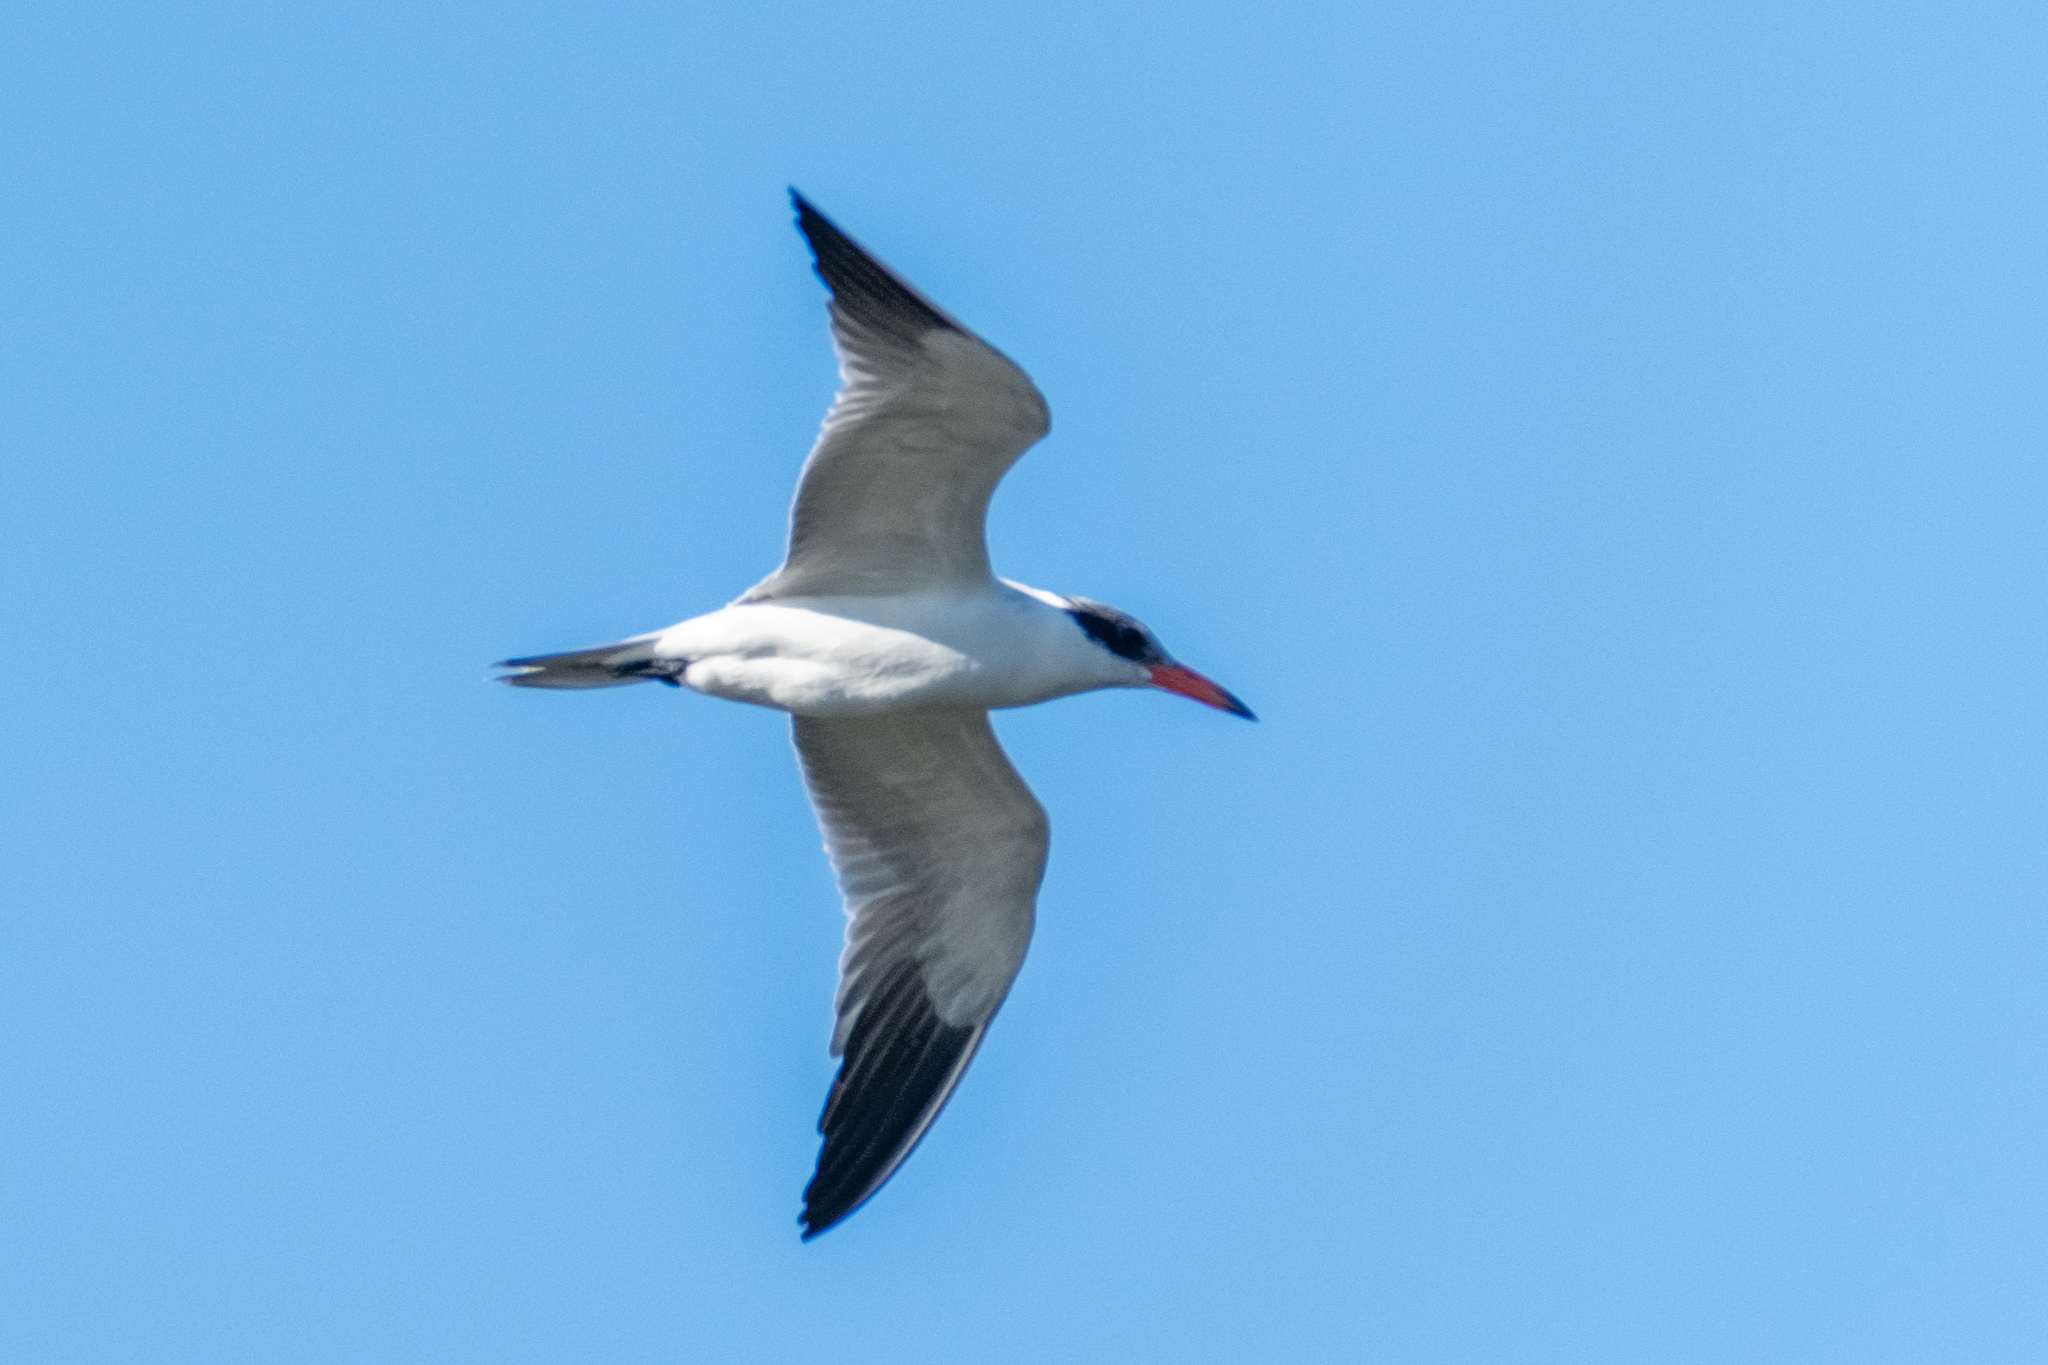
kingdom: Animalia
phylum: Chordata
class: Aves
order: Charadriiformes
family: Laridae
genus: Hydroprogne
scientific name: Hydroprogne caspia
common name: Caspian tern
